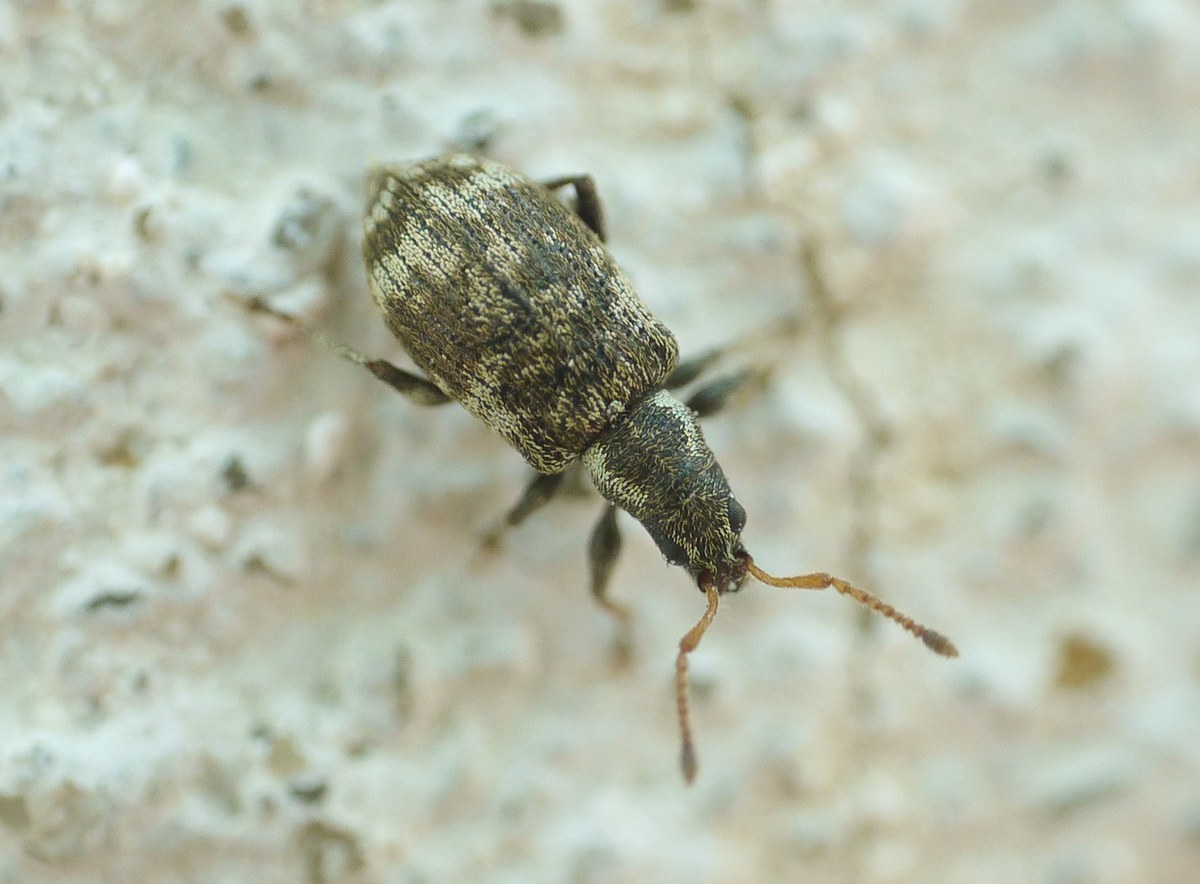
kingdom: Animalia
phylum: Arthropoda
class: Insecta
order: Coleoptera
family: Curculionidae
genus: Oedecnemidius
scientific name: Oedecnemidius varius
